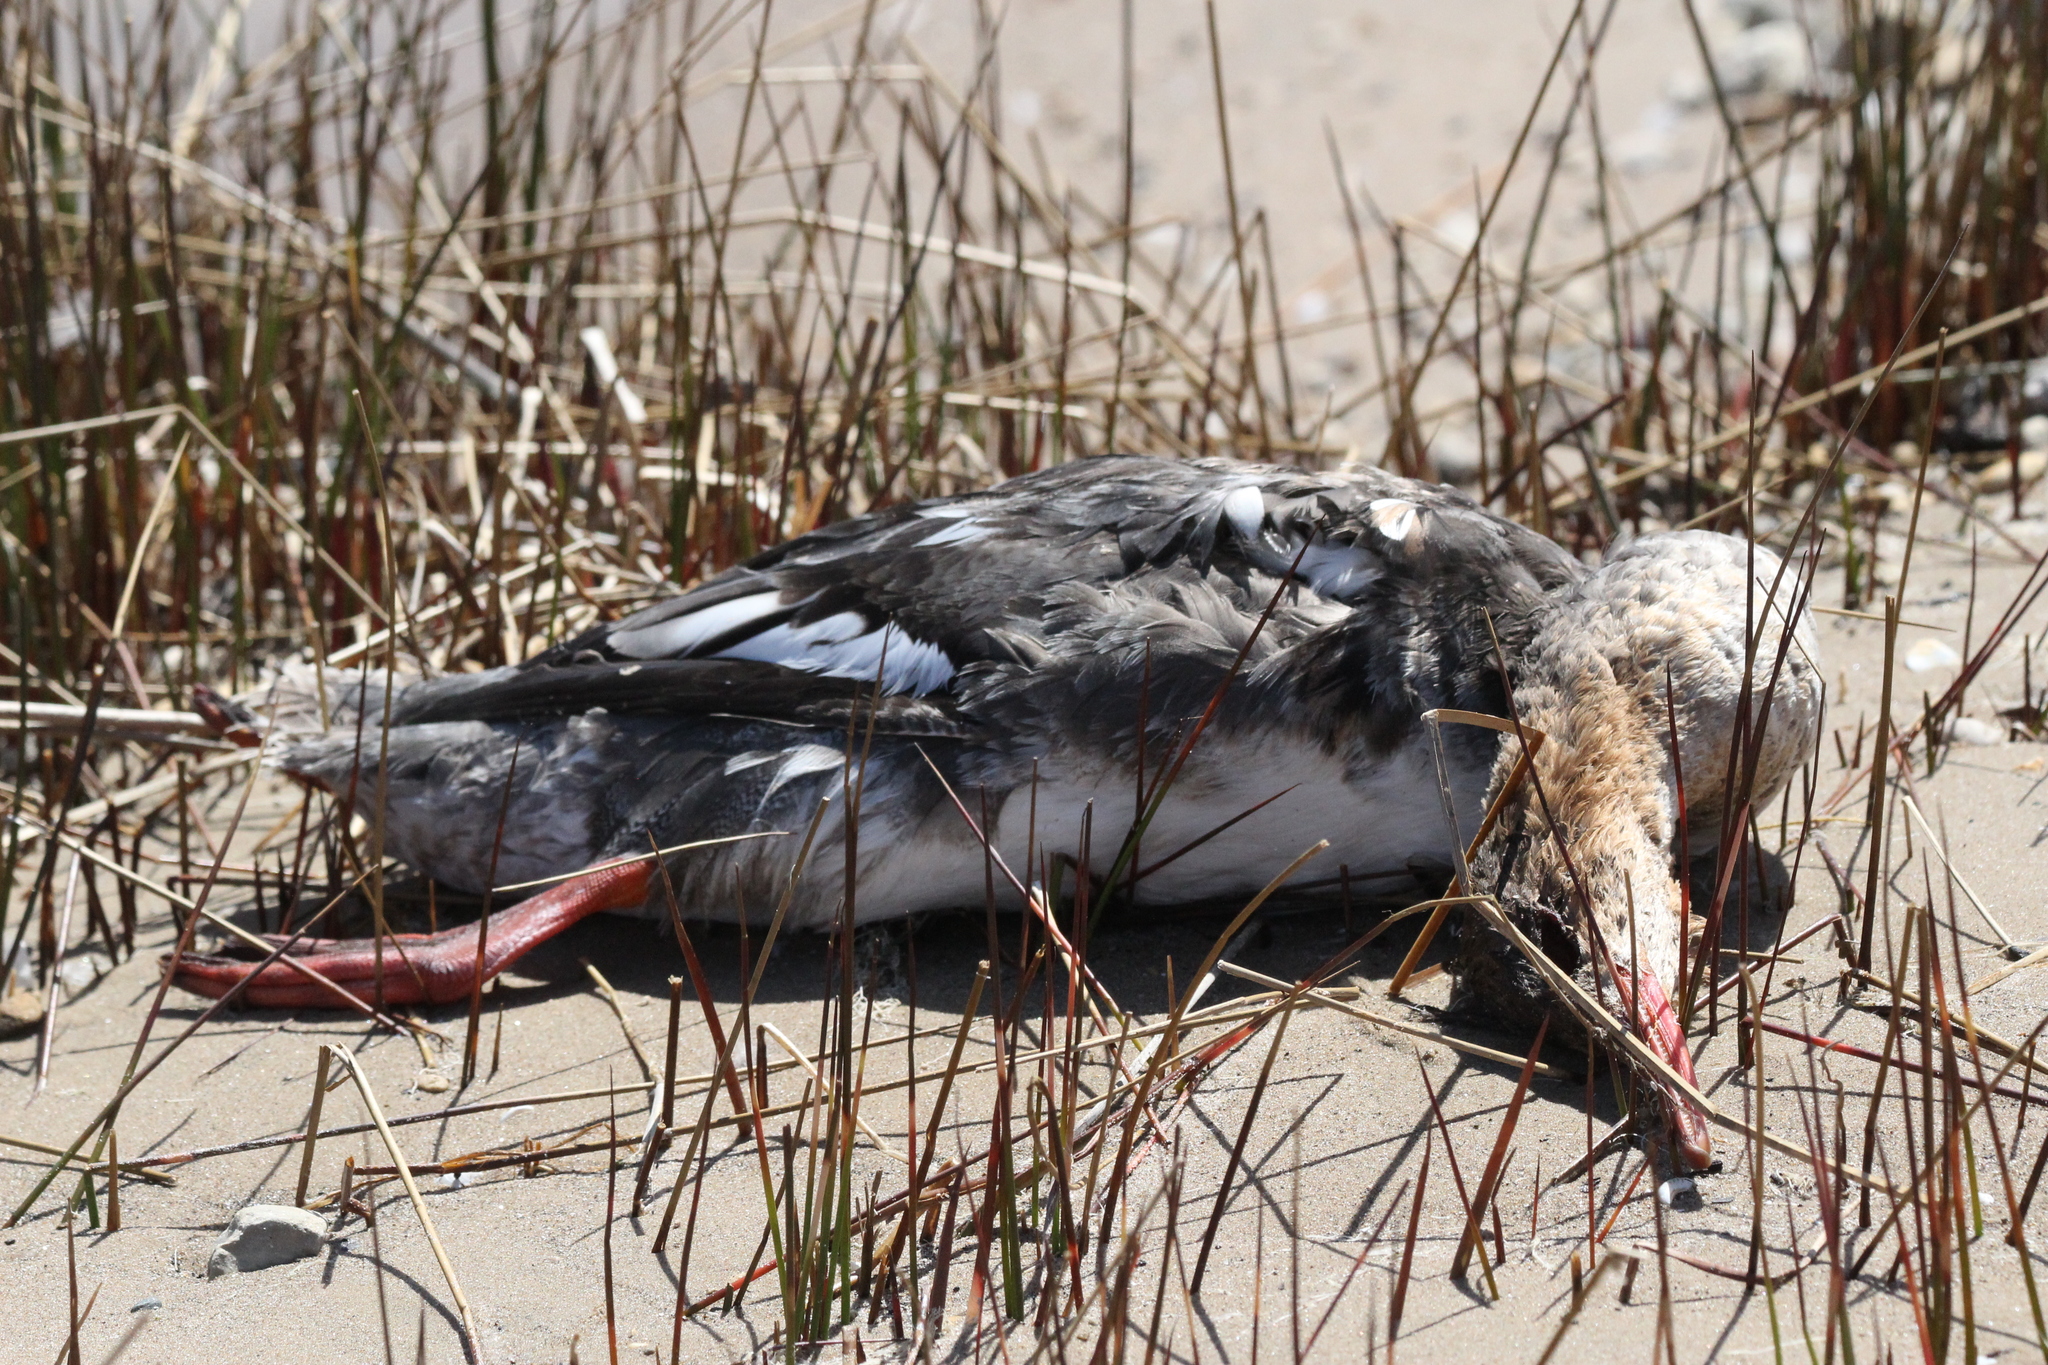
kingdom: Animalia
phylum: Chordata
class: Aves
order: Anseriformes
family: Anatidae
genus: Mergus
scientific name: Mergus serrator
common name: Red-breasted merganser
